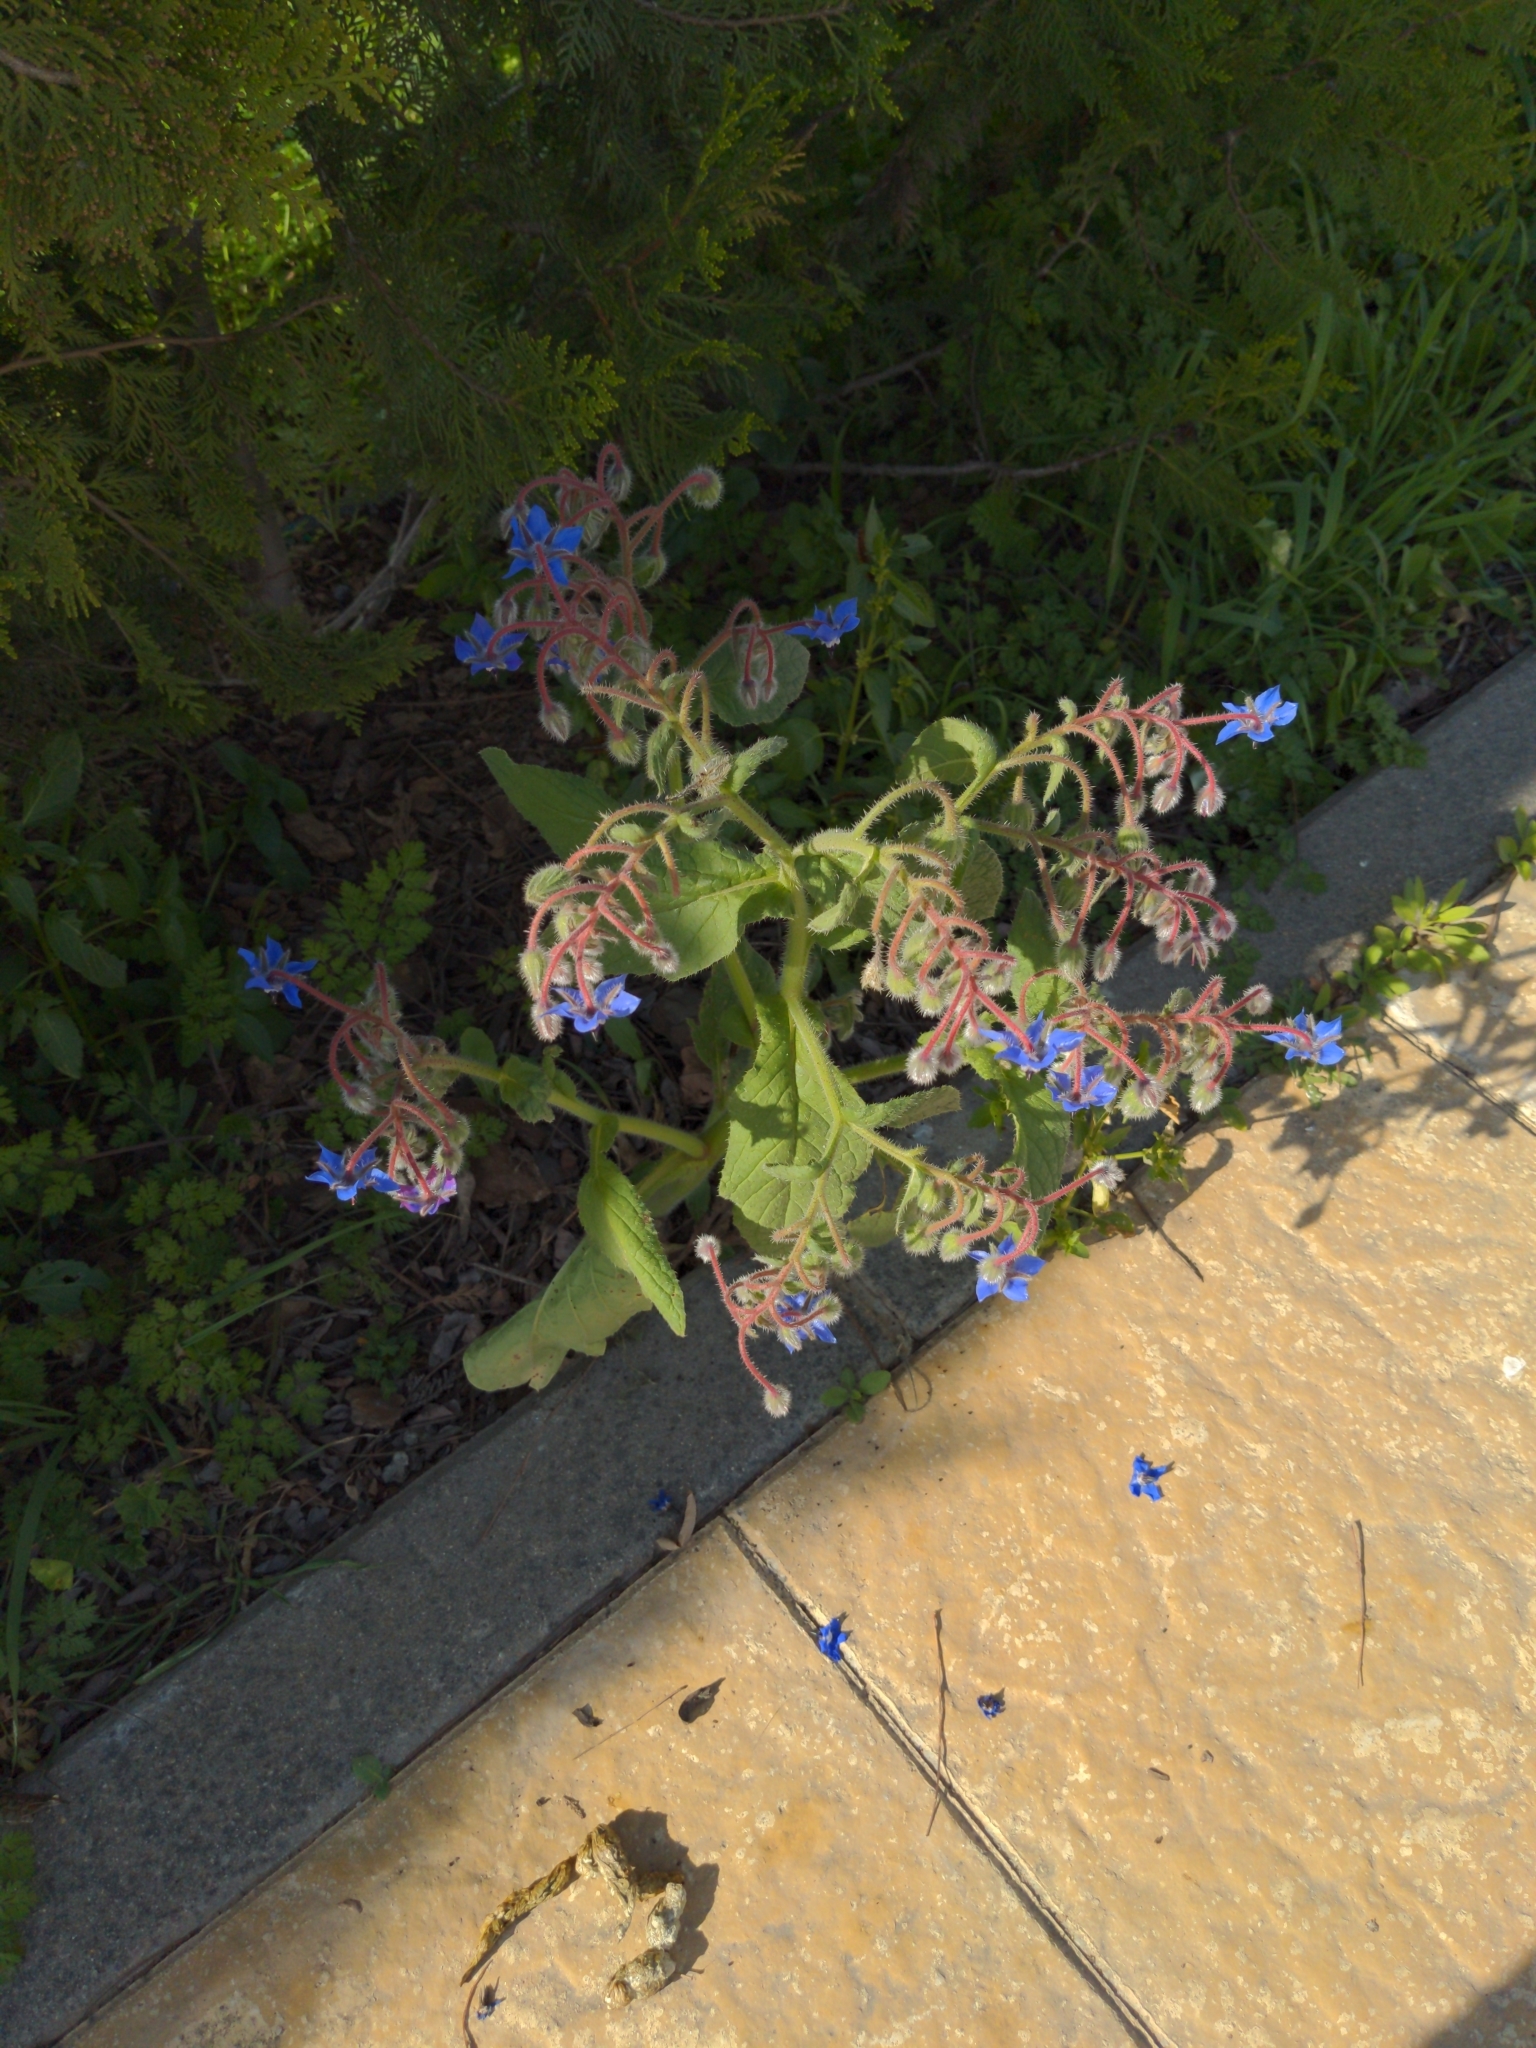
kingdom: Plantae
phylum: Tracheophyta
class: Magnoliopsida
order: Boraginales
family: Boraginaceae
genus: Borago
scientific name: Borago officinalis
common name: Borage
